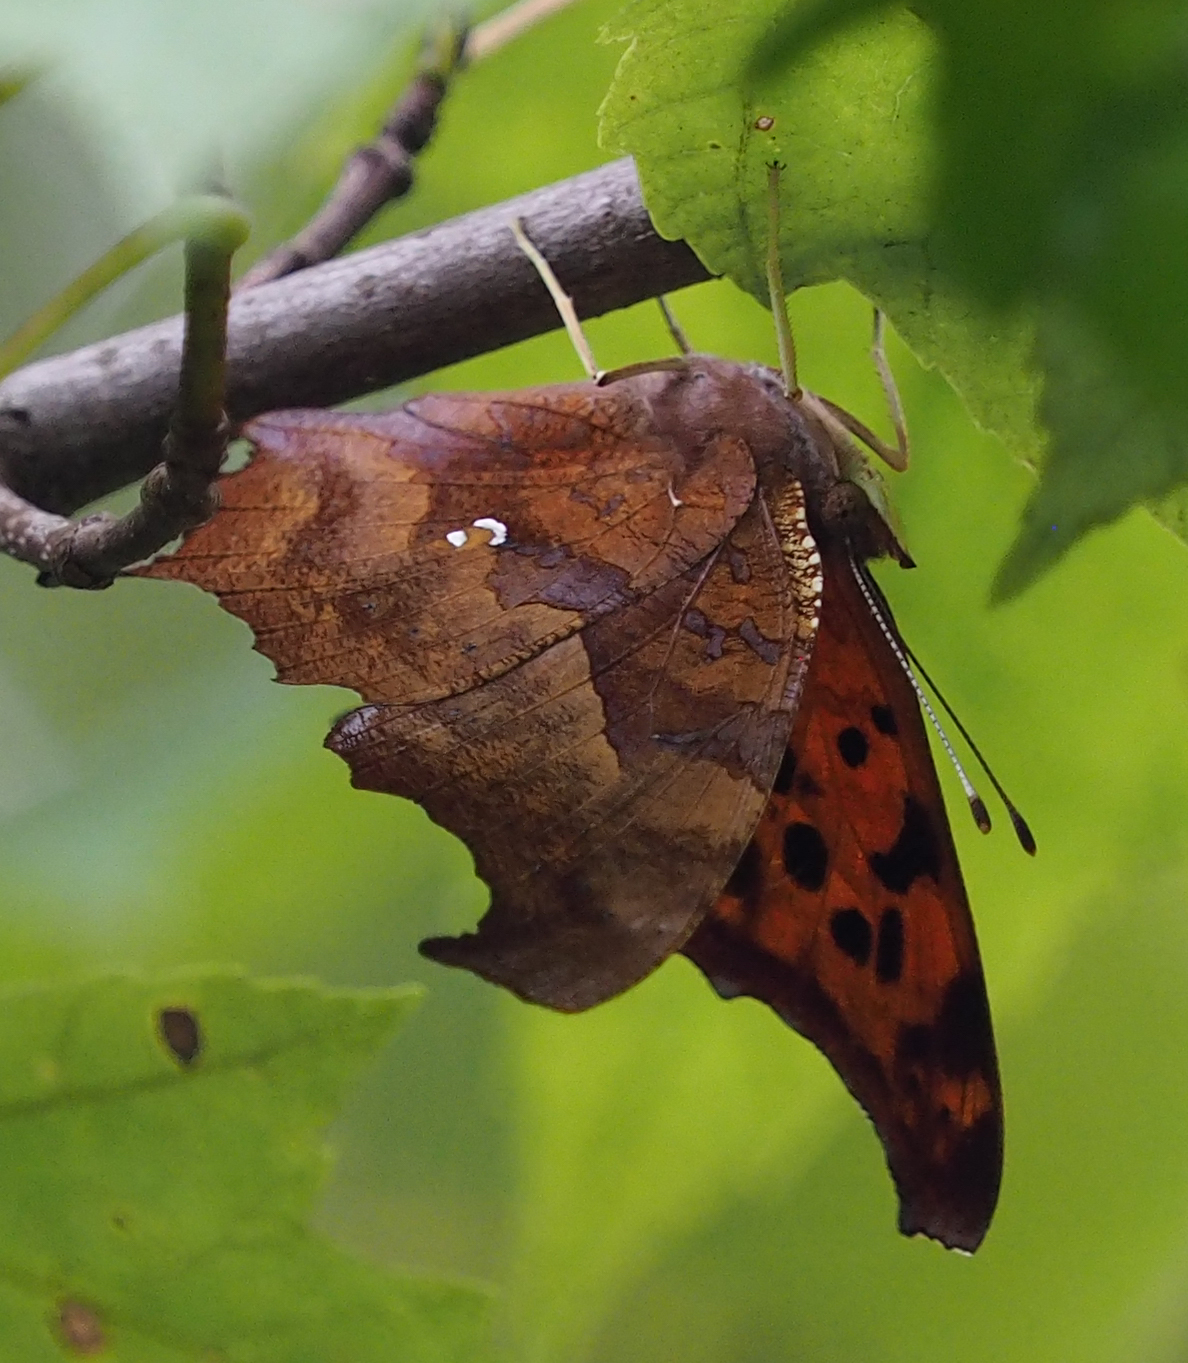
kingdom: Animalia
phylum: Arthropoda
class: Insecta
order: Lepidoptera
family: Nymphalidae
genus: Polygonia
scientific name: Polygonia interrogationis
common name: Question mark
